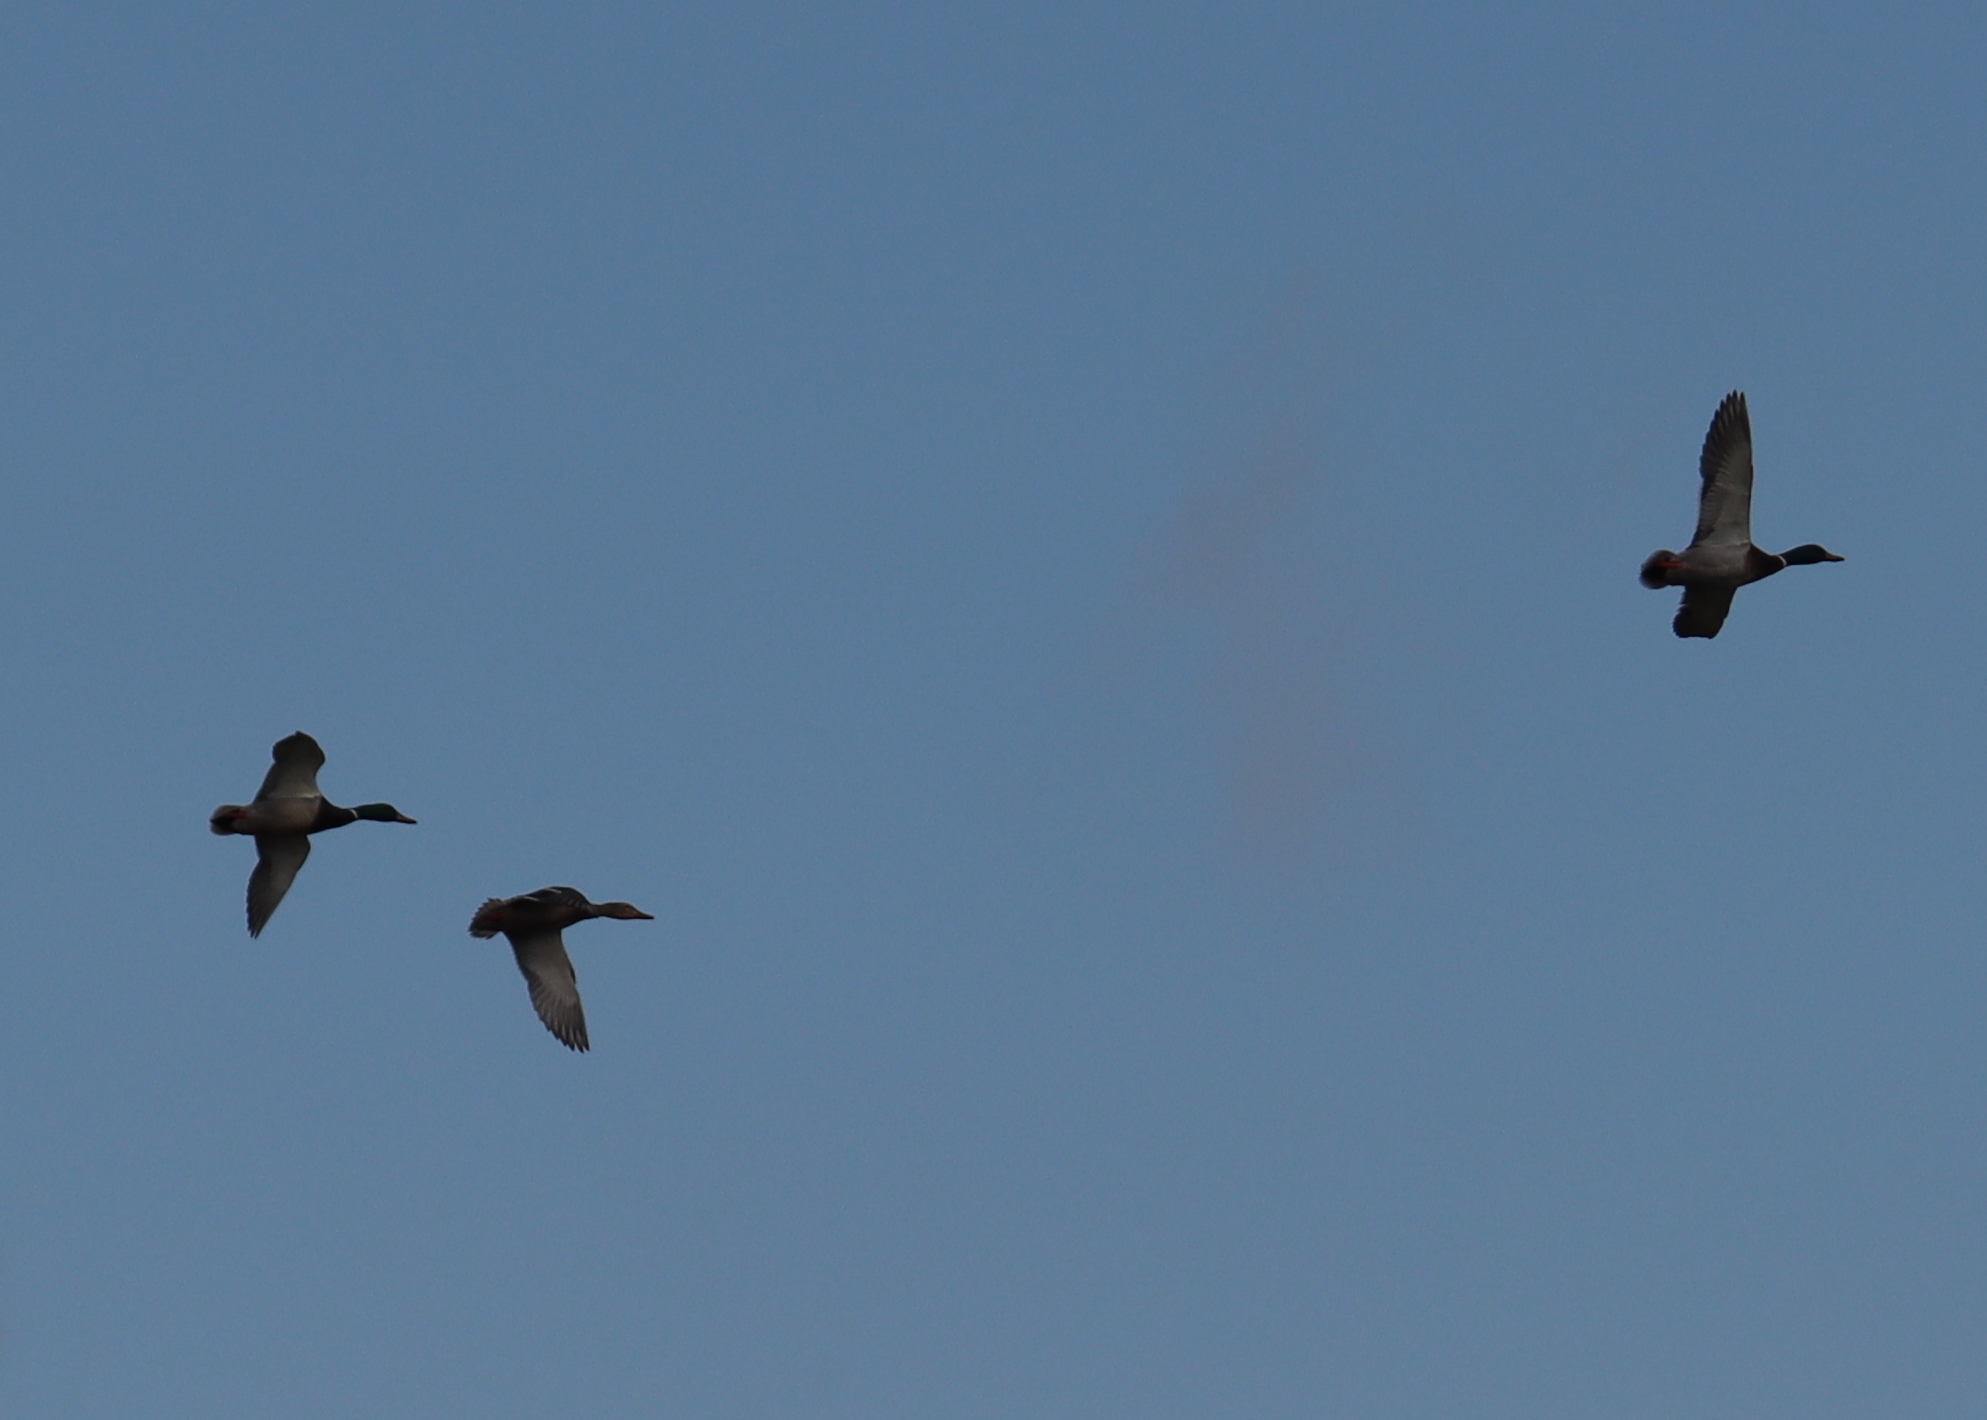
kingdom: Animalia
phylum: Chordata
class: Aves
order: Anseriformes
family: Anatidae
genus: Anas
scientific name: Anas platyrhynchos
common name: Mallard
